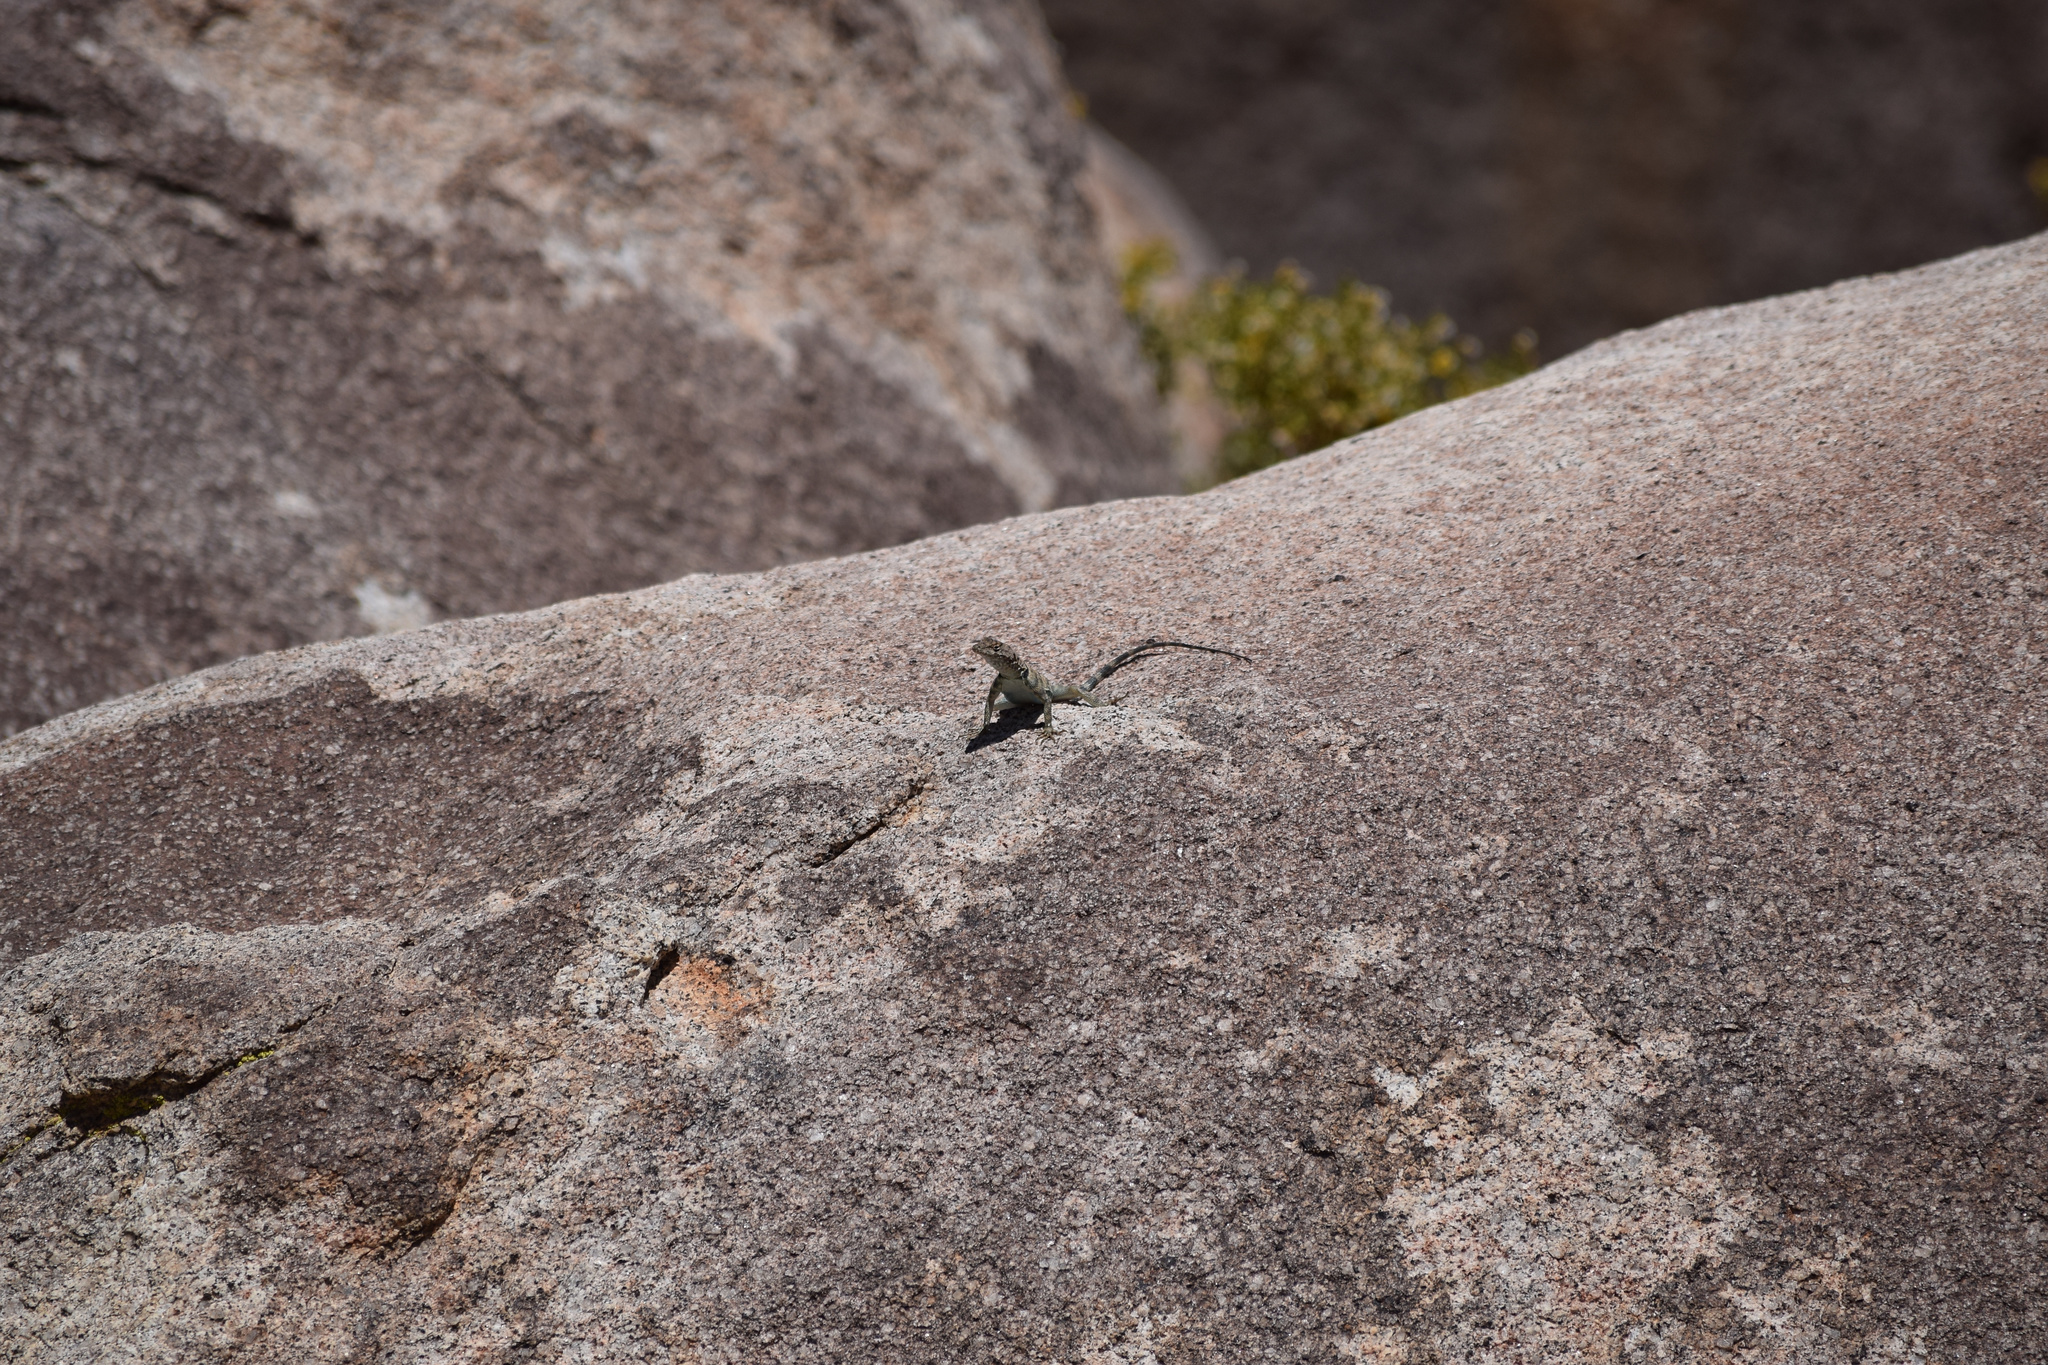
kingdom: Animalia
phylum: Chordata
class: Squamata
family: Phrynosomatidae
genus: Petrosaurus
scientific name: Petrosaurus mearnsi
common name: Banded rock lizard
